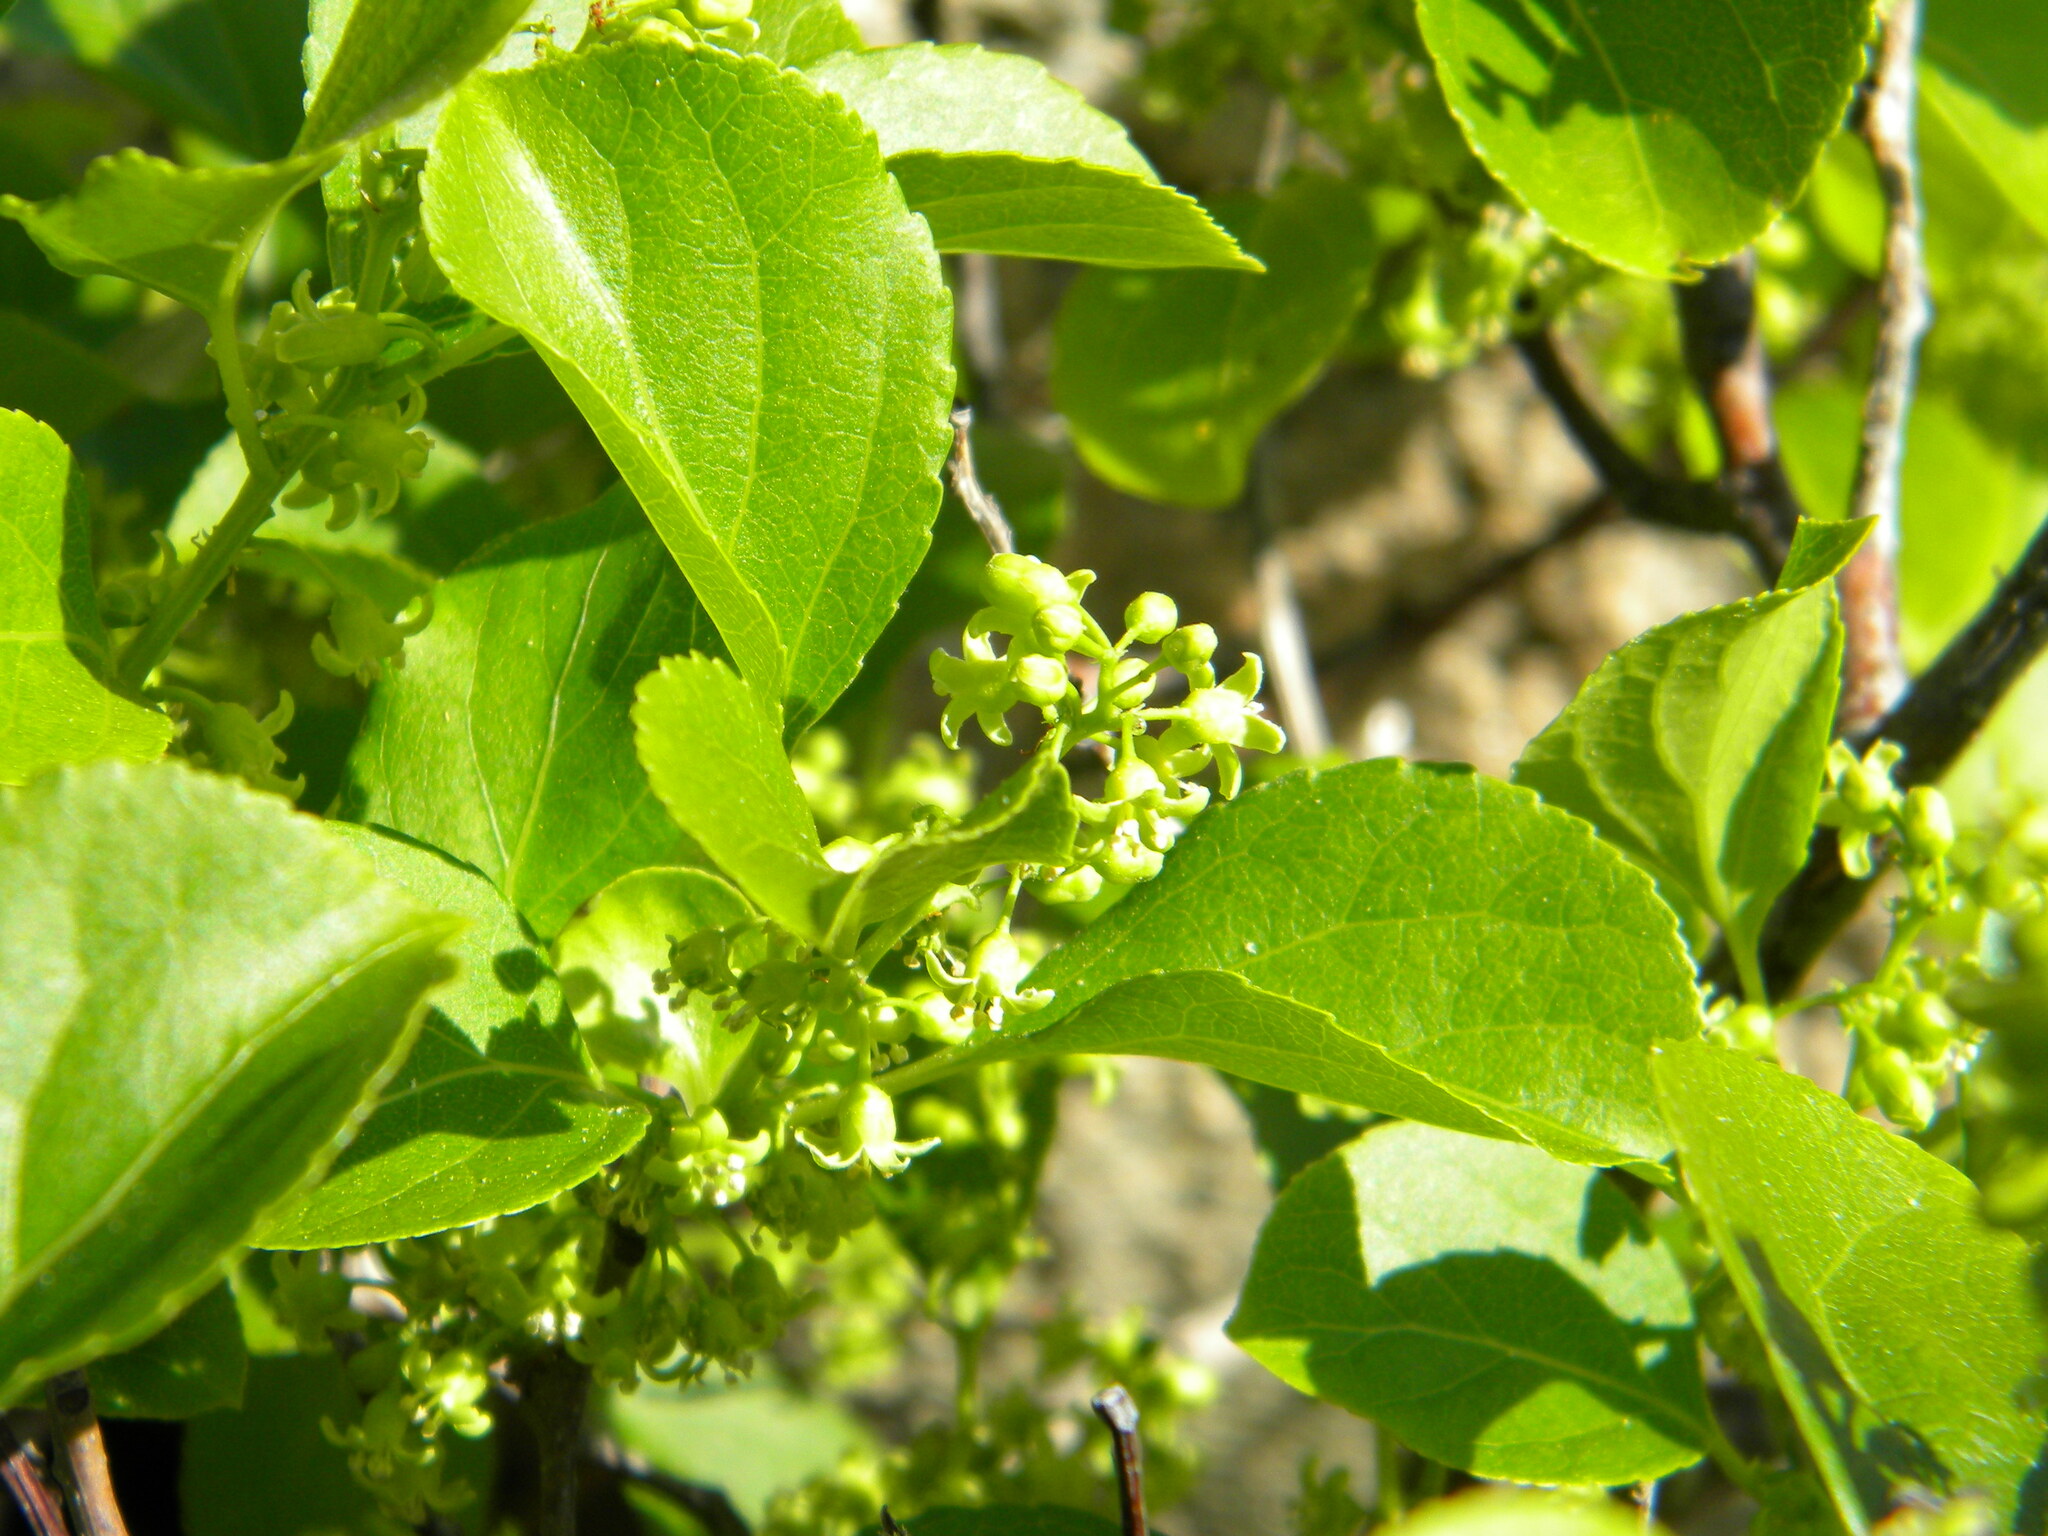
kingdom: Plantae
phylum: Tracheophyta
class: Magnoliopsida
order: Celastrales
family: Celastraceae
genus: Celastrus
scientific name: Celastrus orbiculatus
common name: Oriental bittersweet
